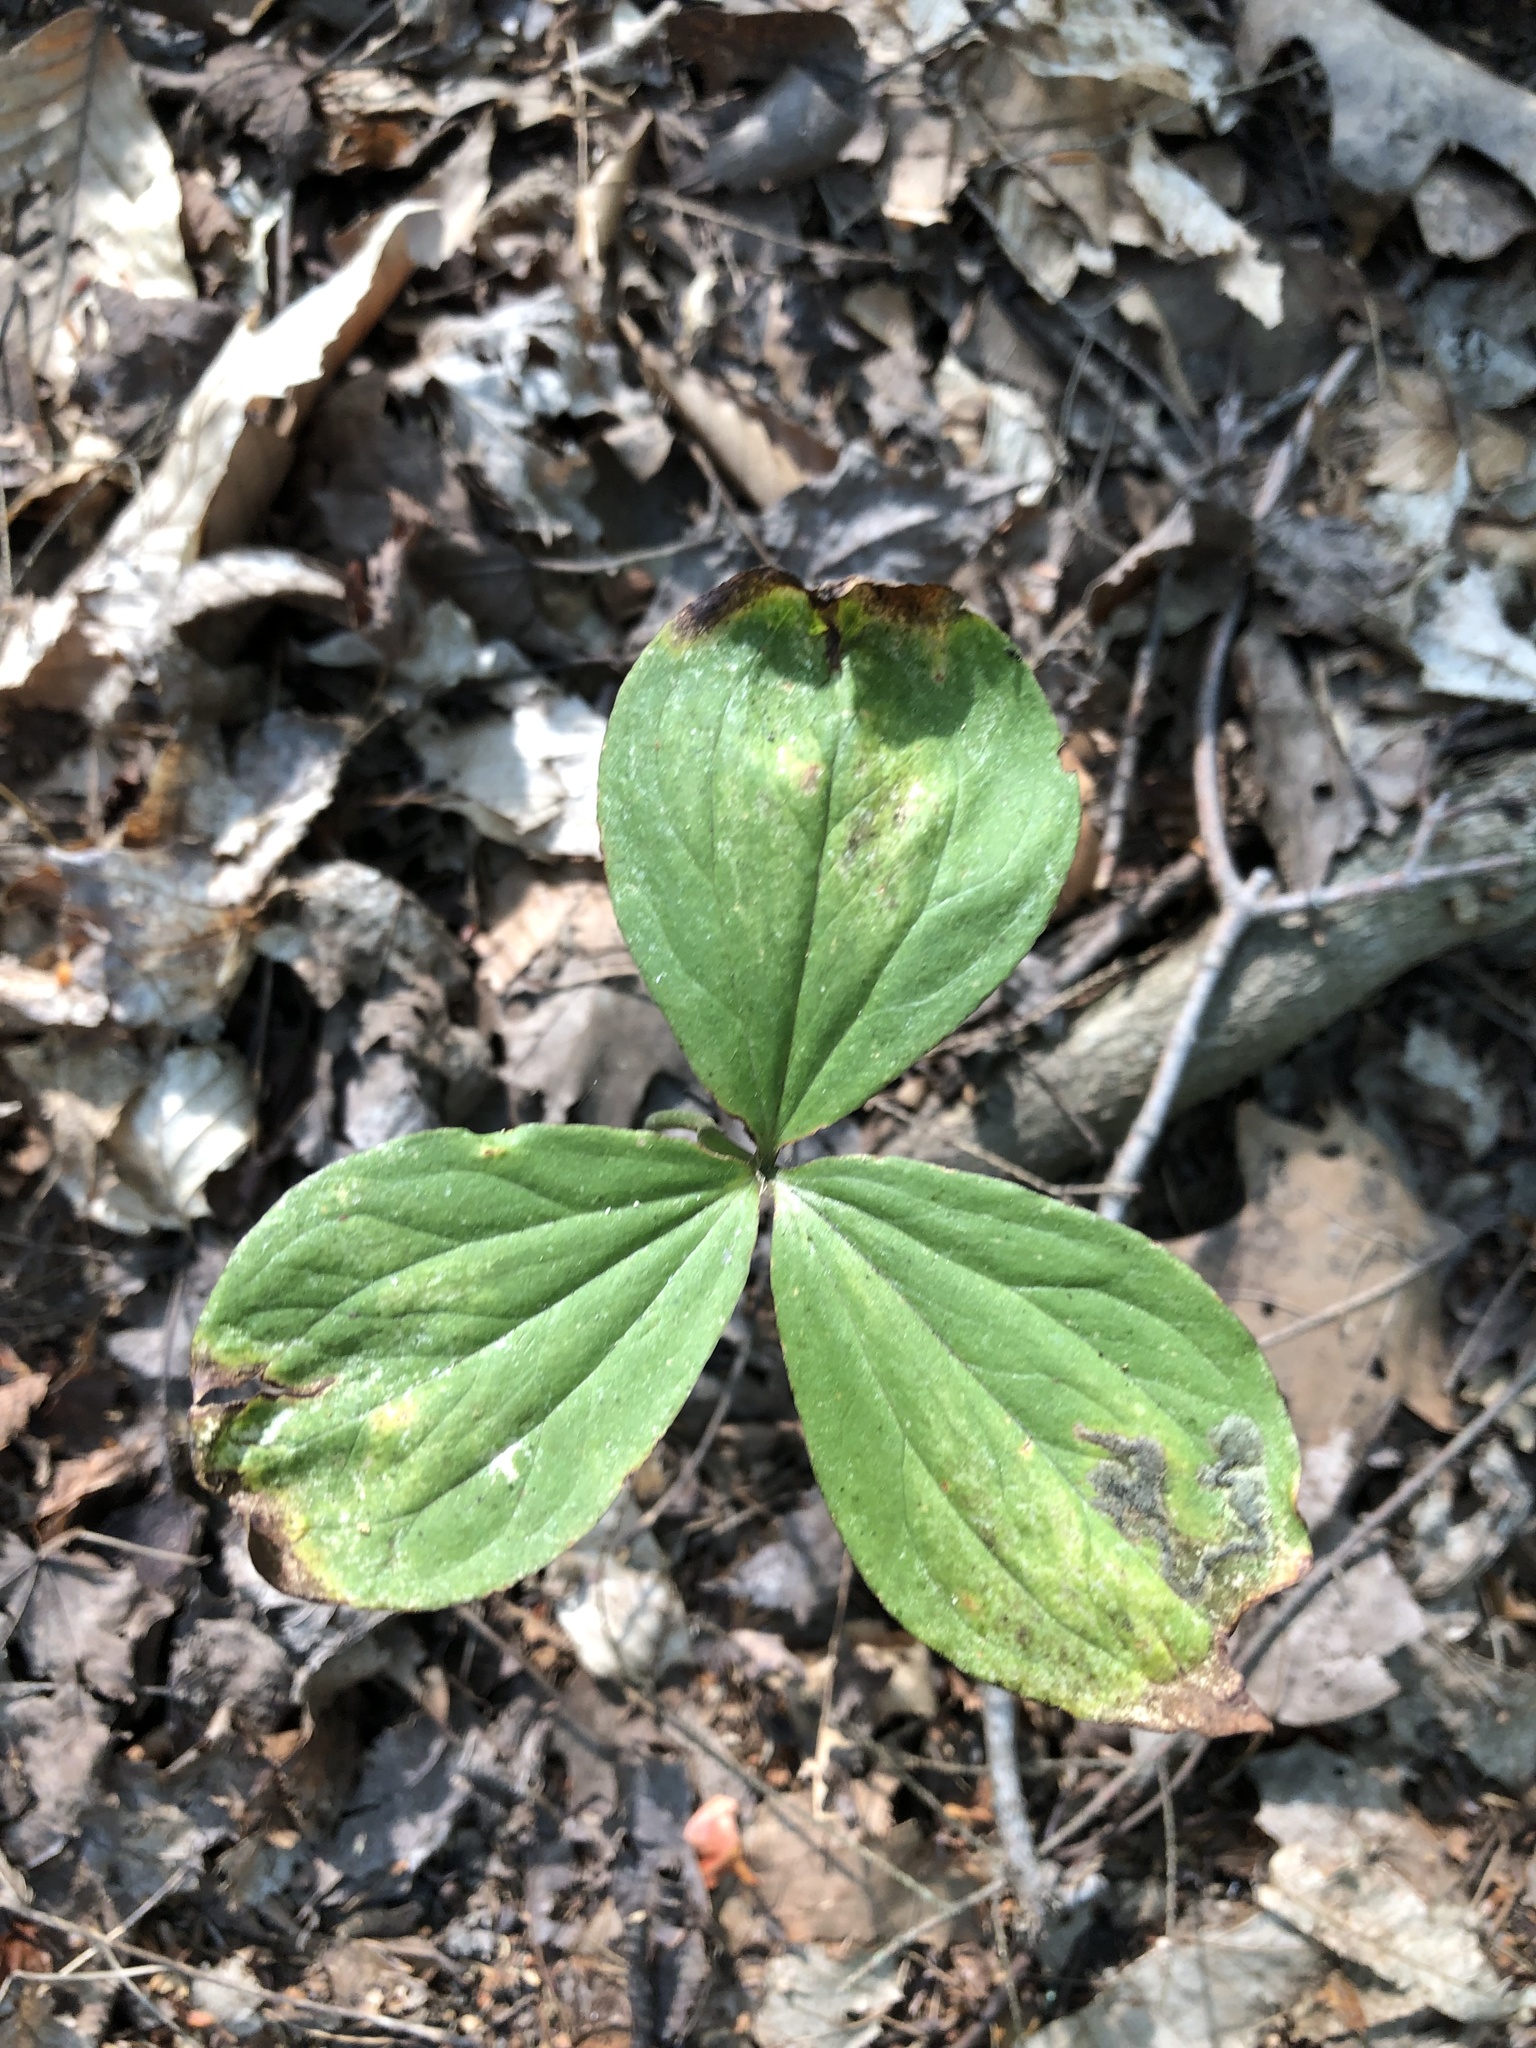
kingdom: Plantae
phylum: Tracheophyta
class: Liliopsida
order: Liliales
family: Melanthiaceae
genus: Trillium
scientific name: Trillium grandiflorum
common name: Great white trillium
